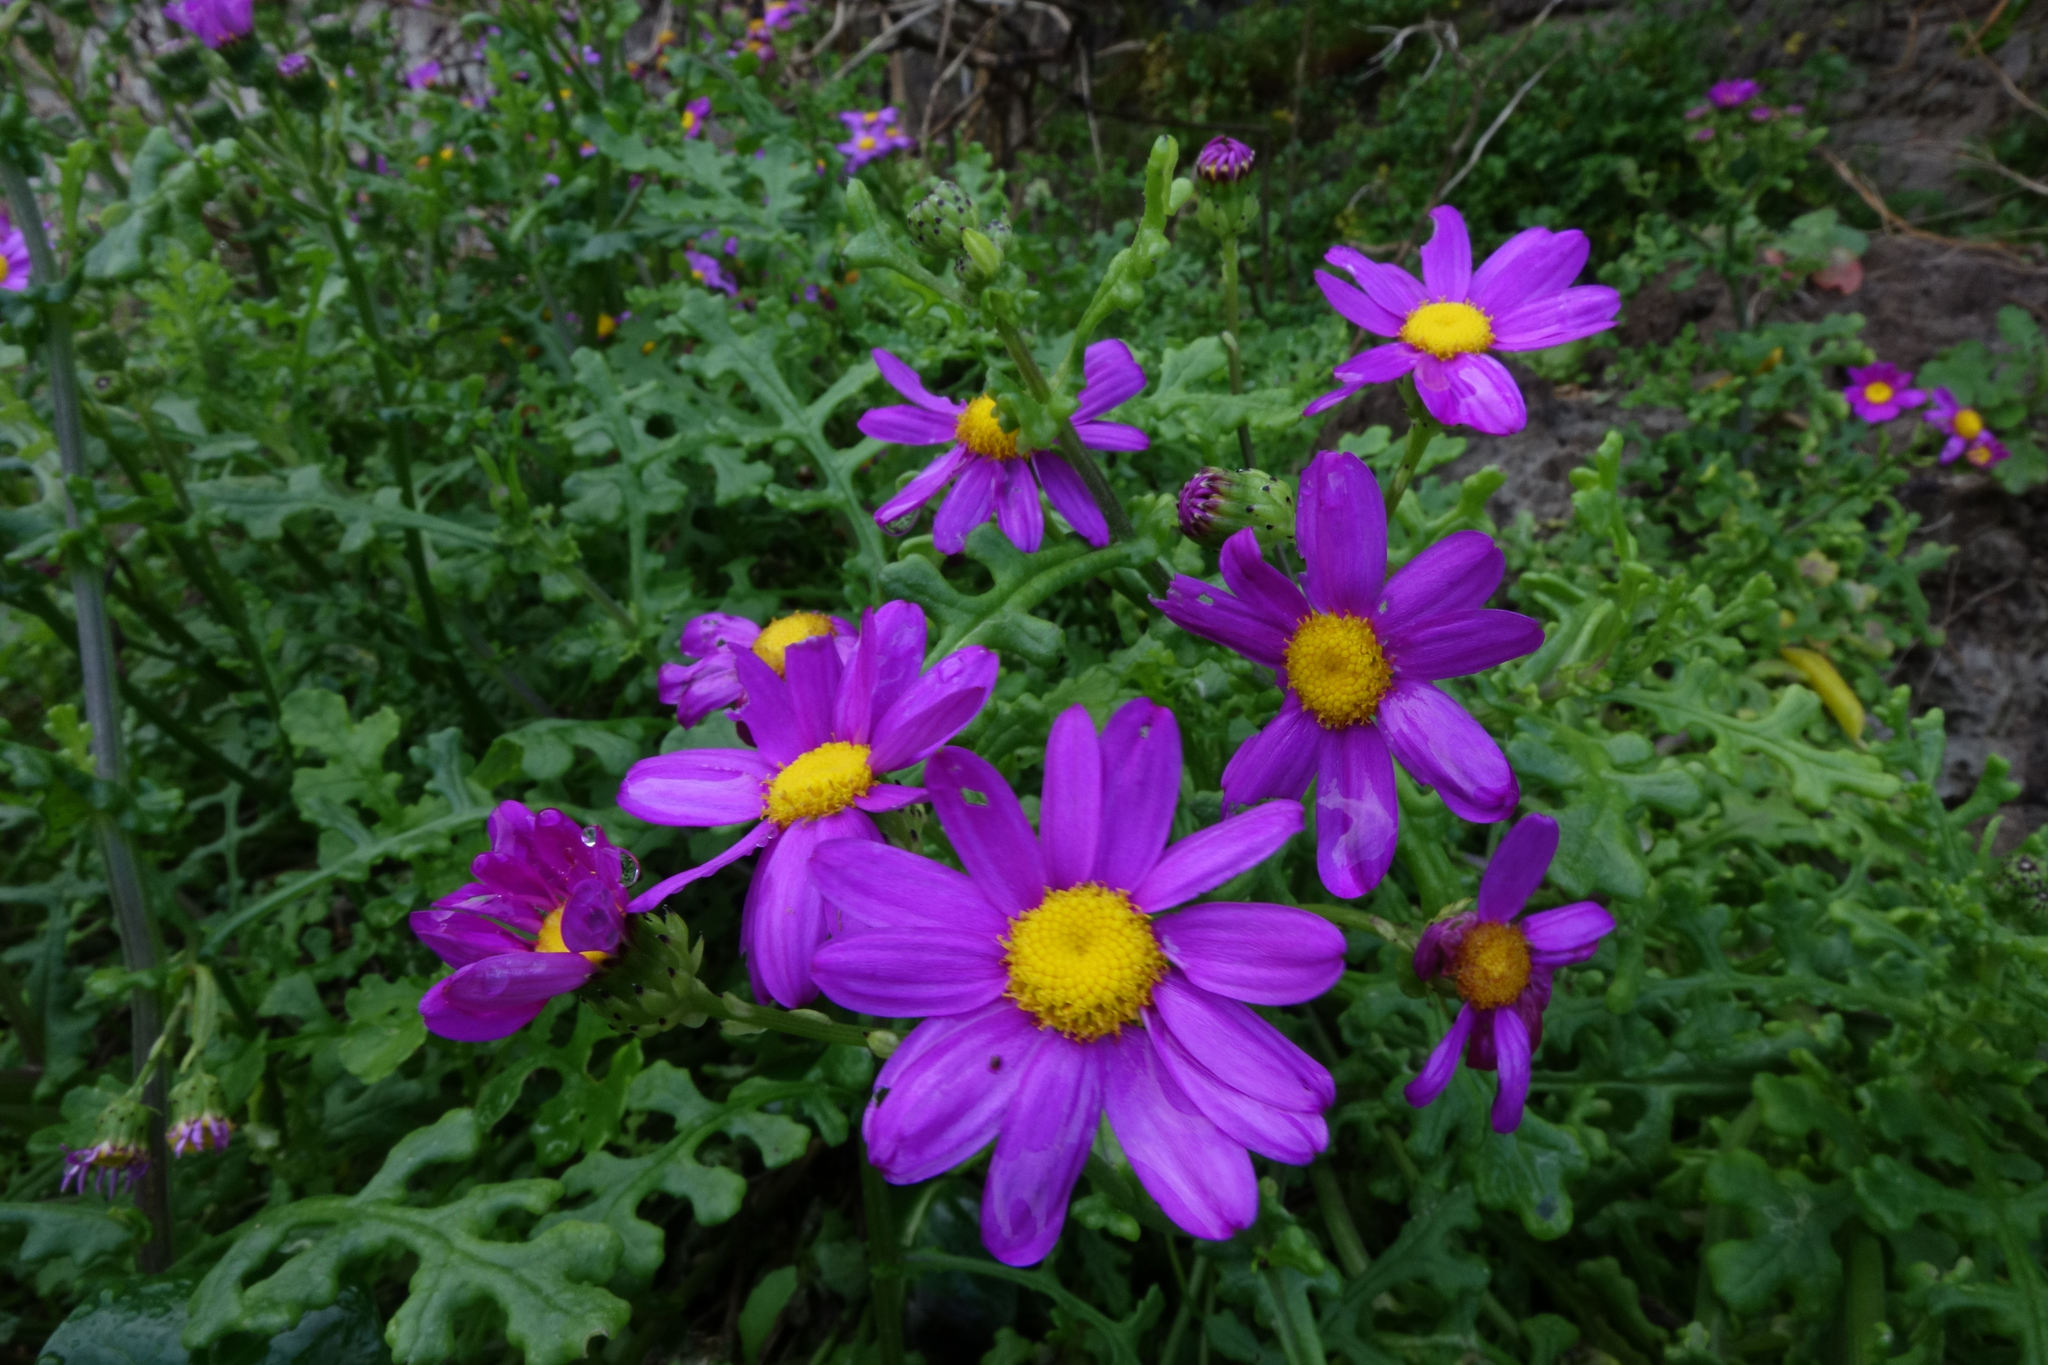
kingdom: Plantae
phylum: Tracheophyta
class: Magnoliopsida
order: Asterales
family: Asteraceae
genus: Senecio
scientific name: Senecio elegans
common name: Purple groundsel
